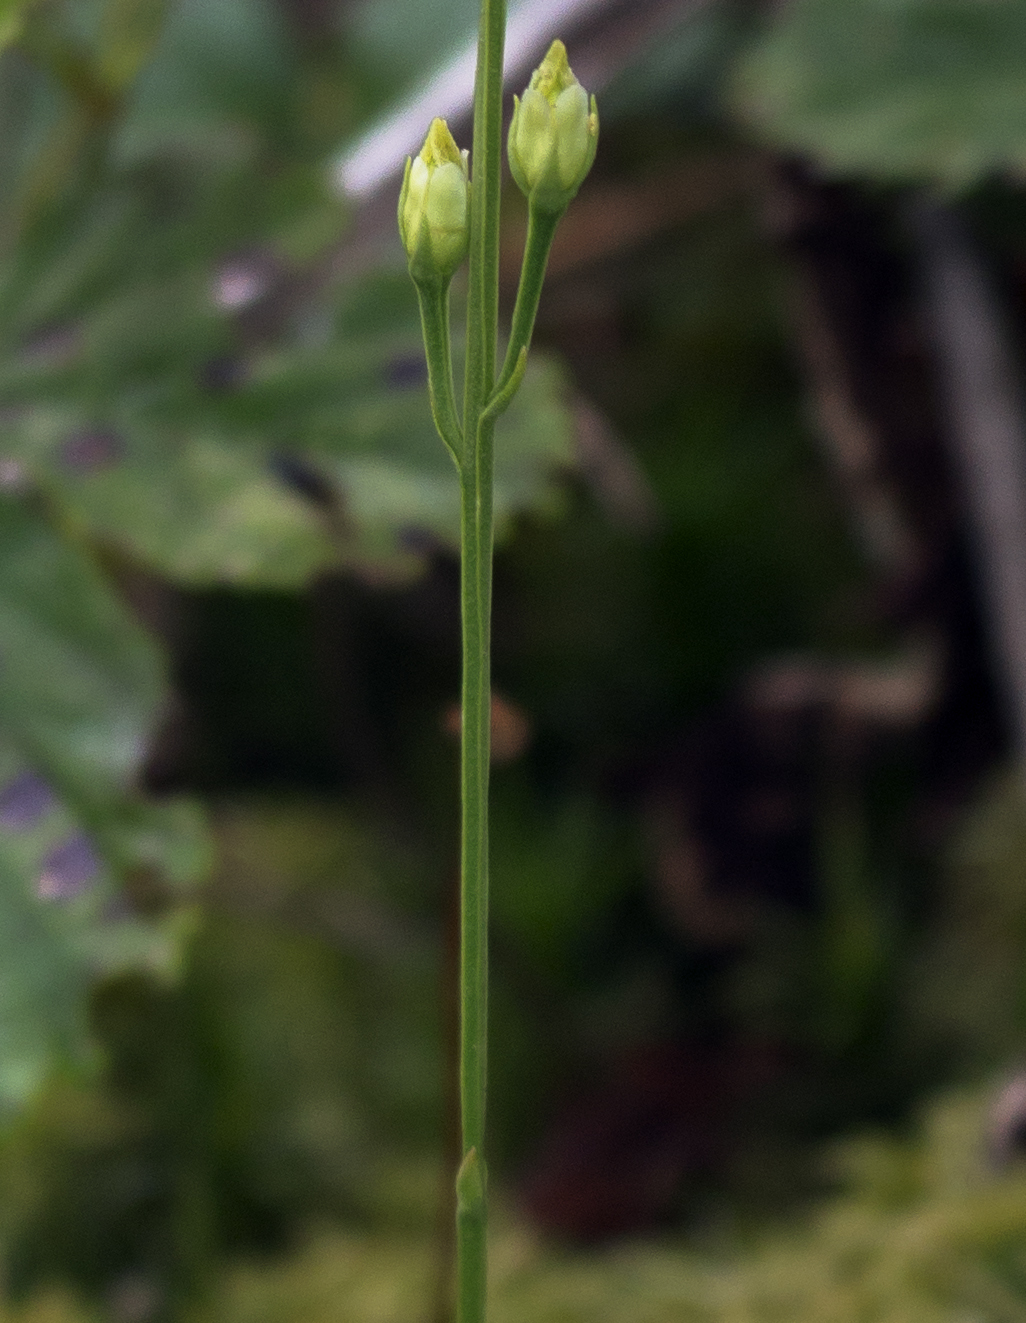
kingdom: Plantae
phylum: Tracheophyta
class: Magnoliopsida
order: Gentianales
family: Gentianaceae
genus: Bartonia
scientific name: Bartonia virginica
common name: Yellow bartonia
